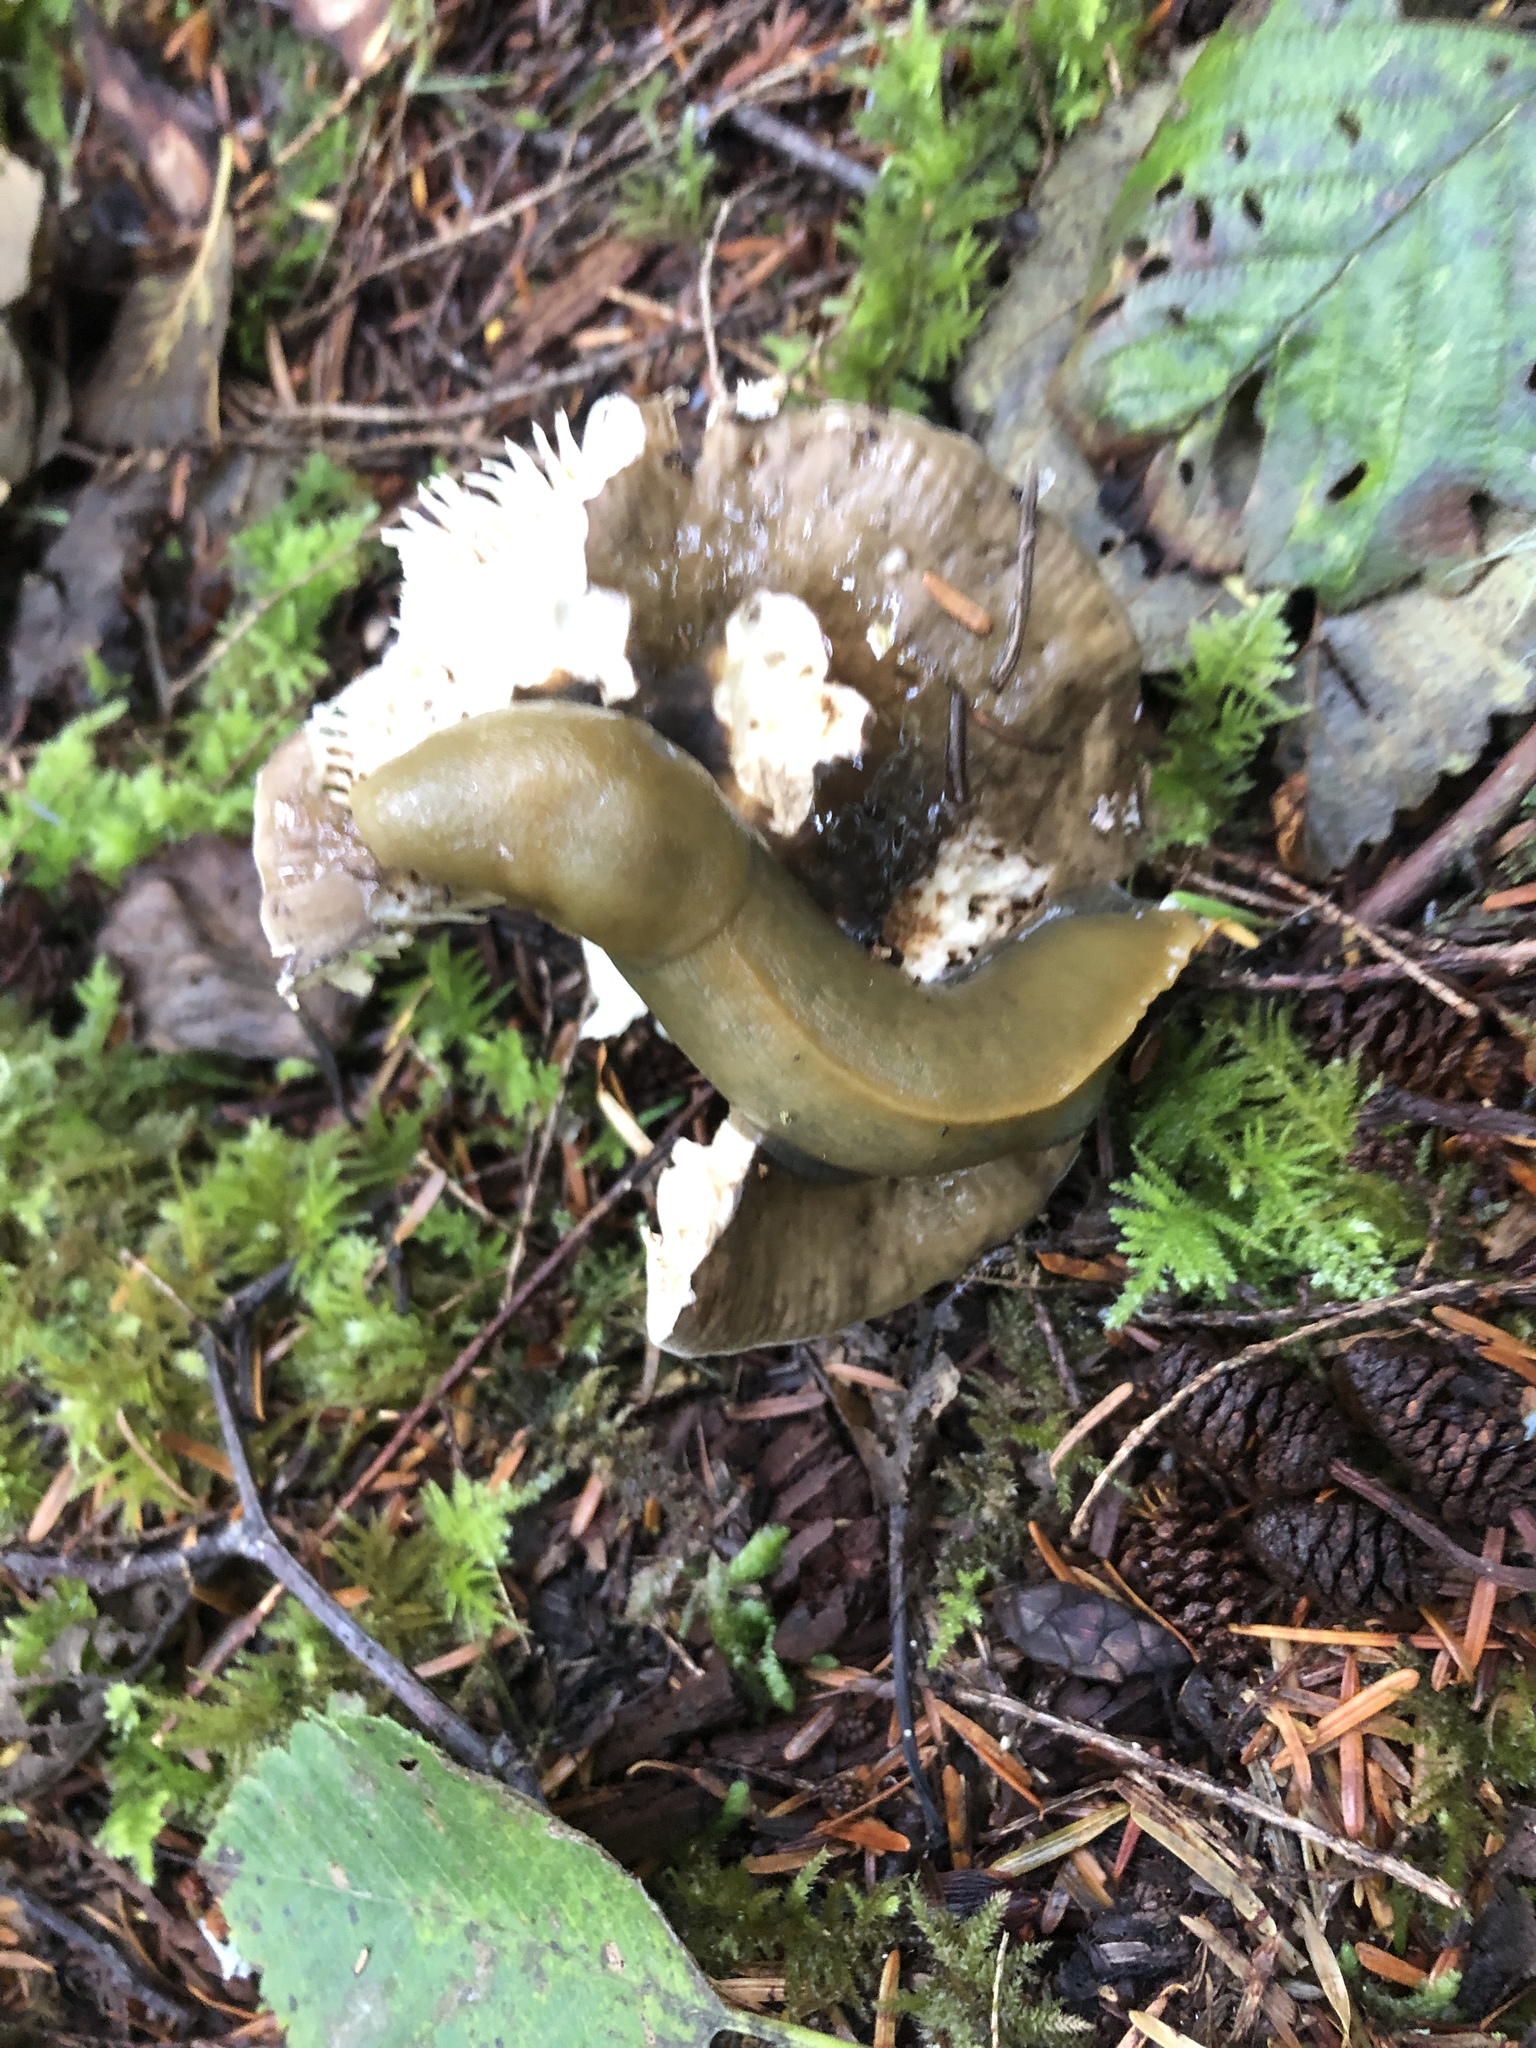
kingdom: Animalia
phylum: Mollusca
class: Gastropoda
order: Stylommatophora
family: Ariolimacidae
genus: Ariolimax
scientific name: Ariolimax columbianus
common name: Pacific banana slug
